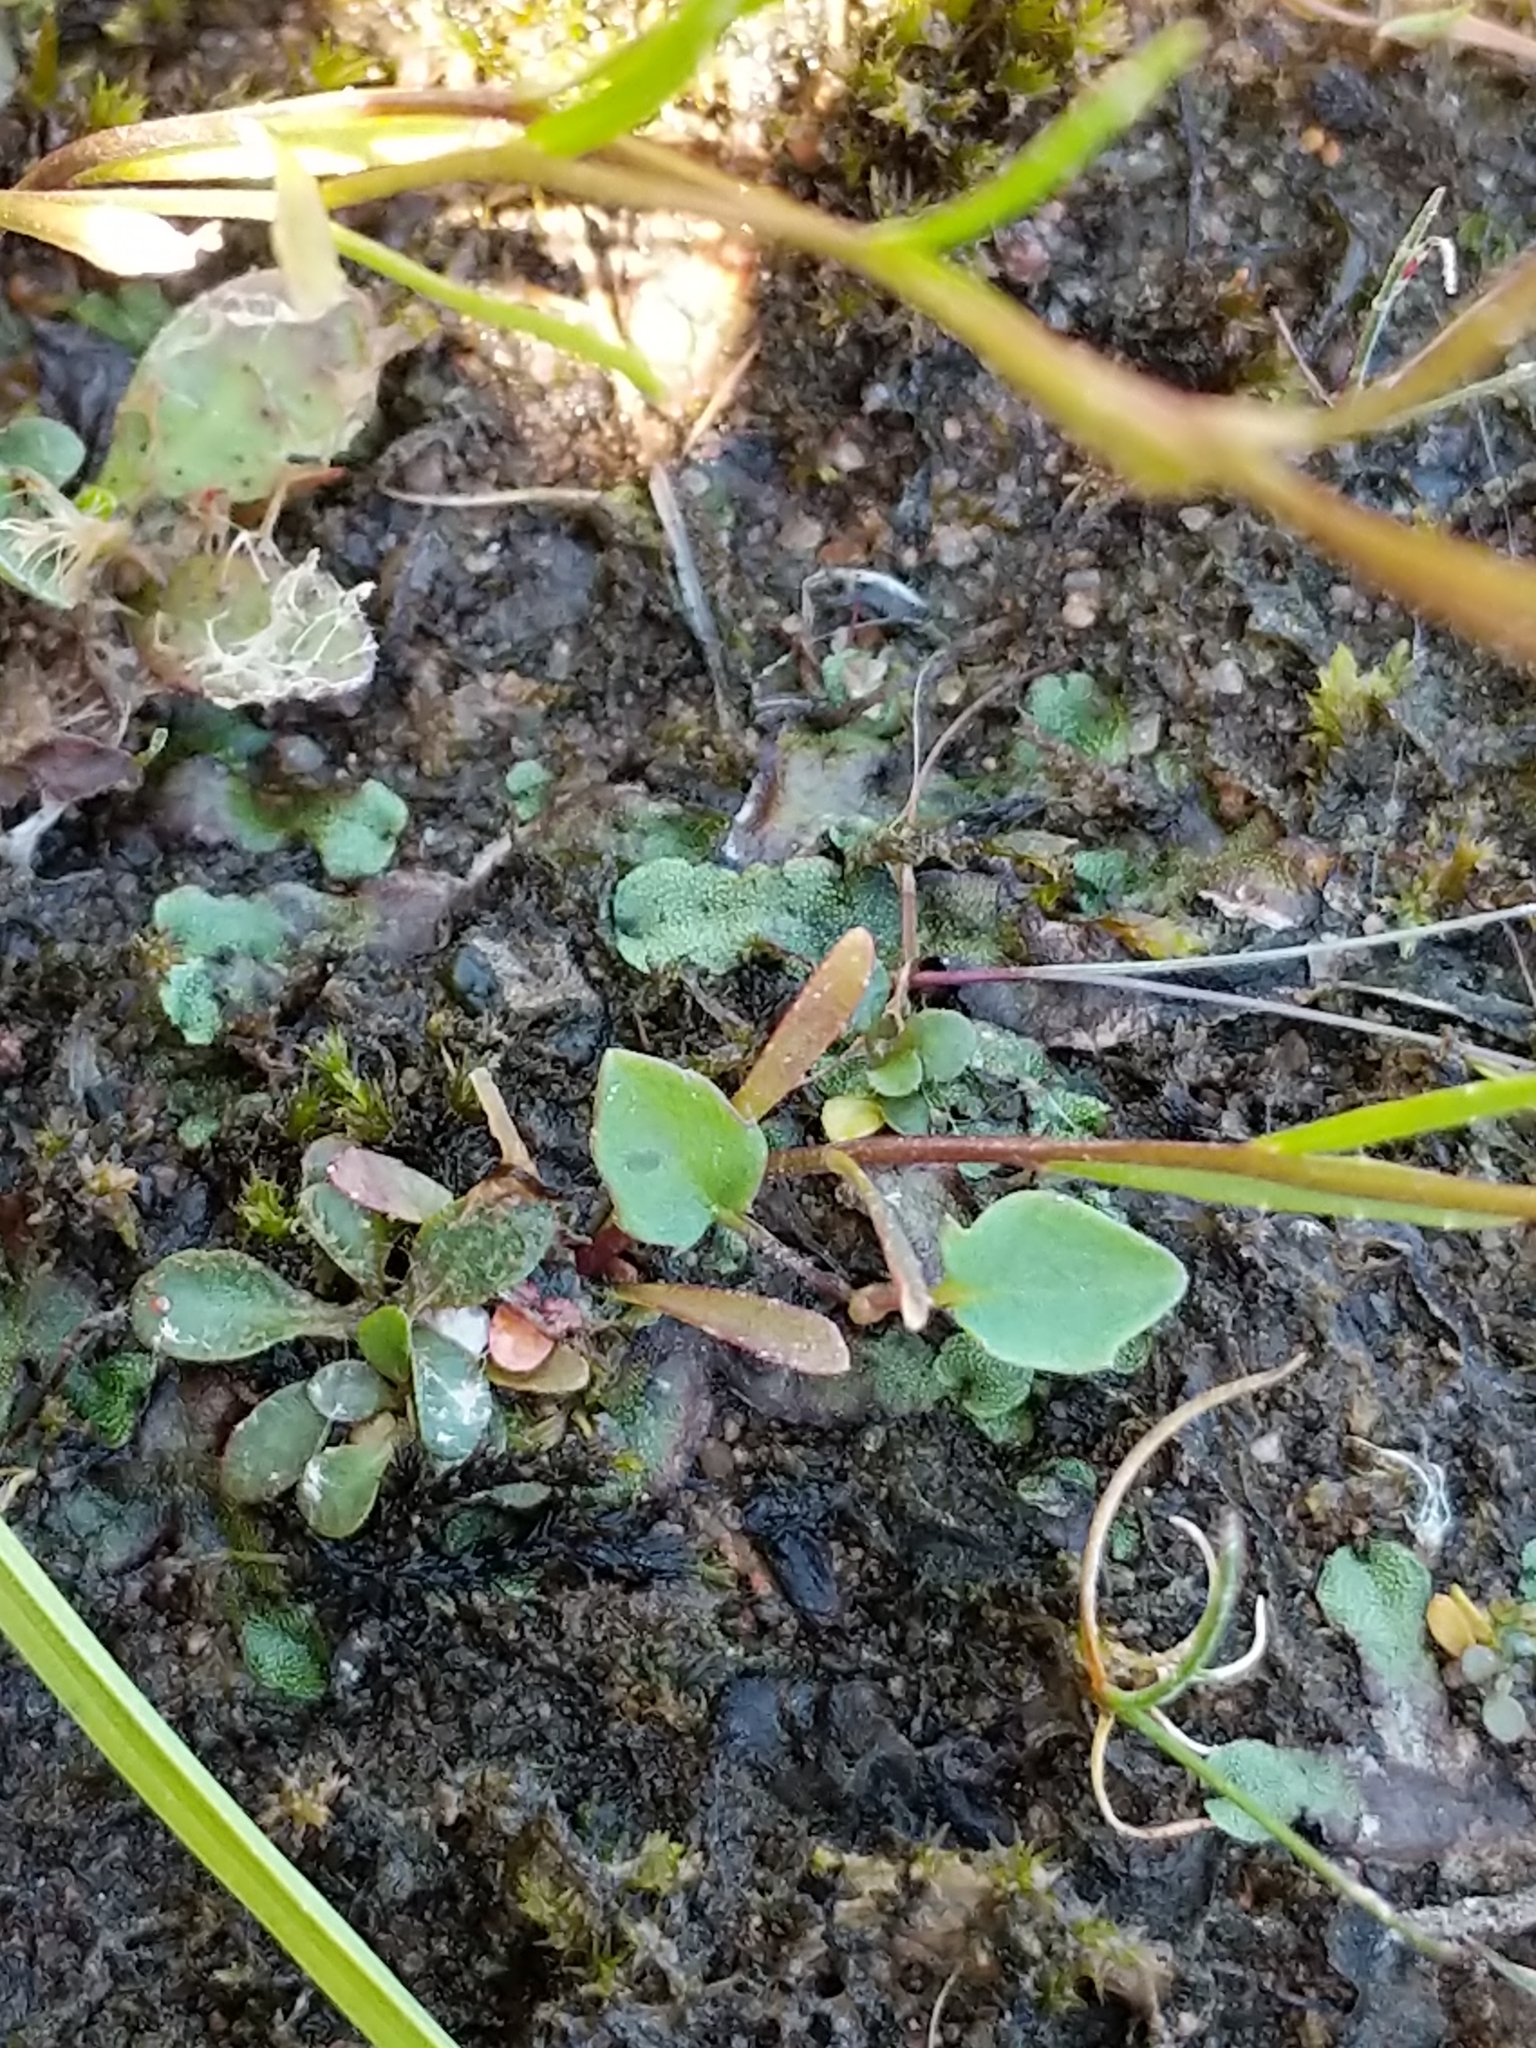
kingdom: Plantae
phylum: Tracheophyta
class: Magnoliopsida
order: Asterales
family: Campanulaceae
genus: Lobelia
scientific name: Lobelia kalmii
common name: Kalm's lobelia
